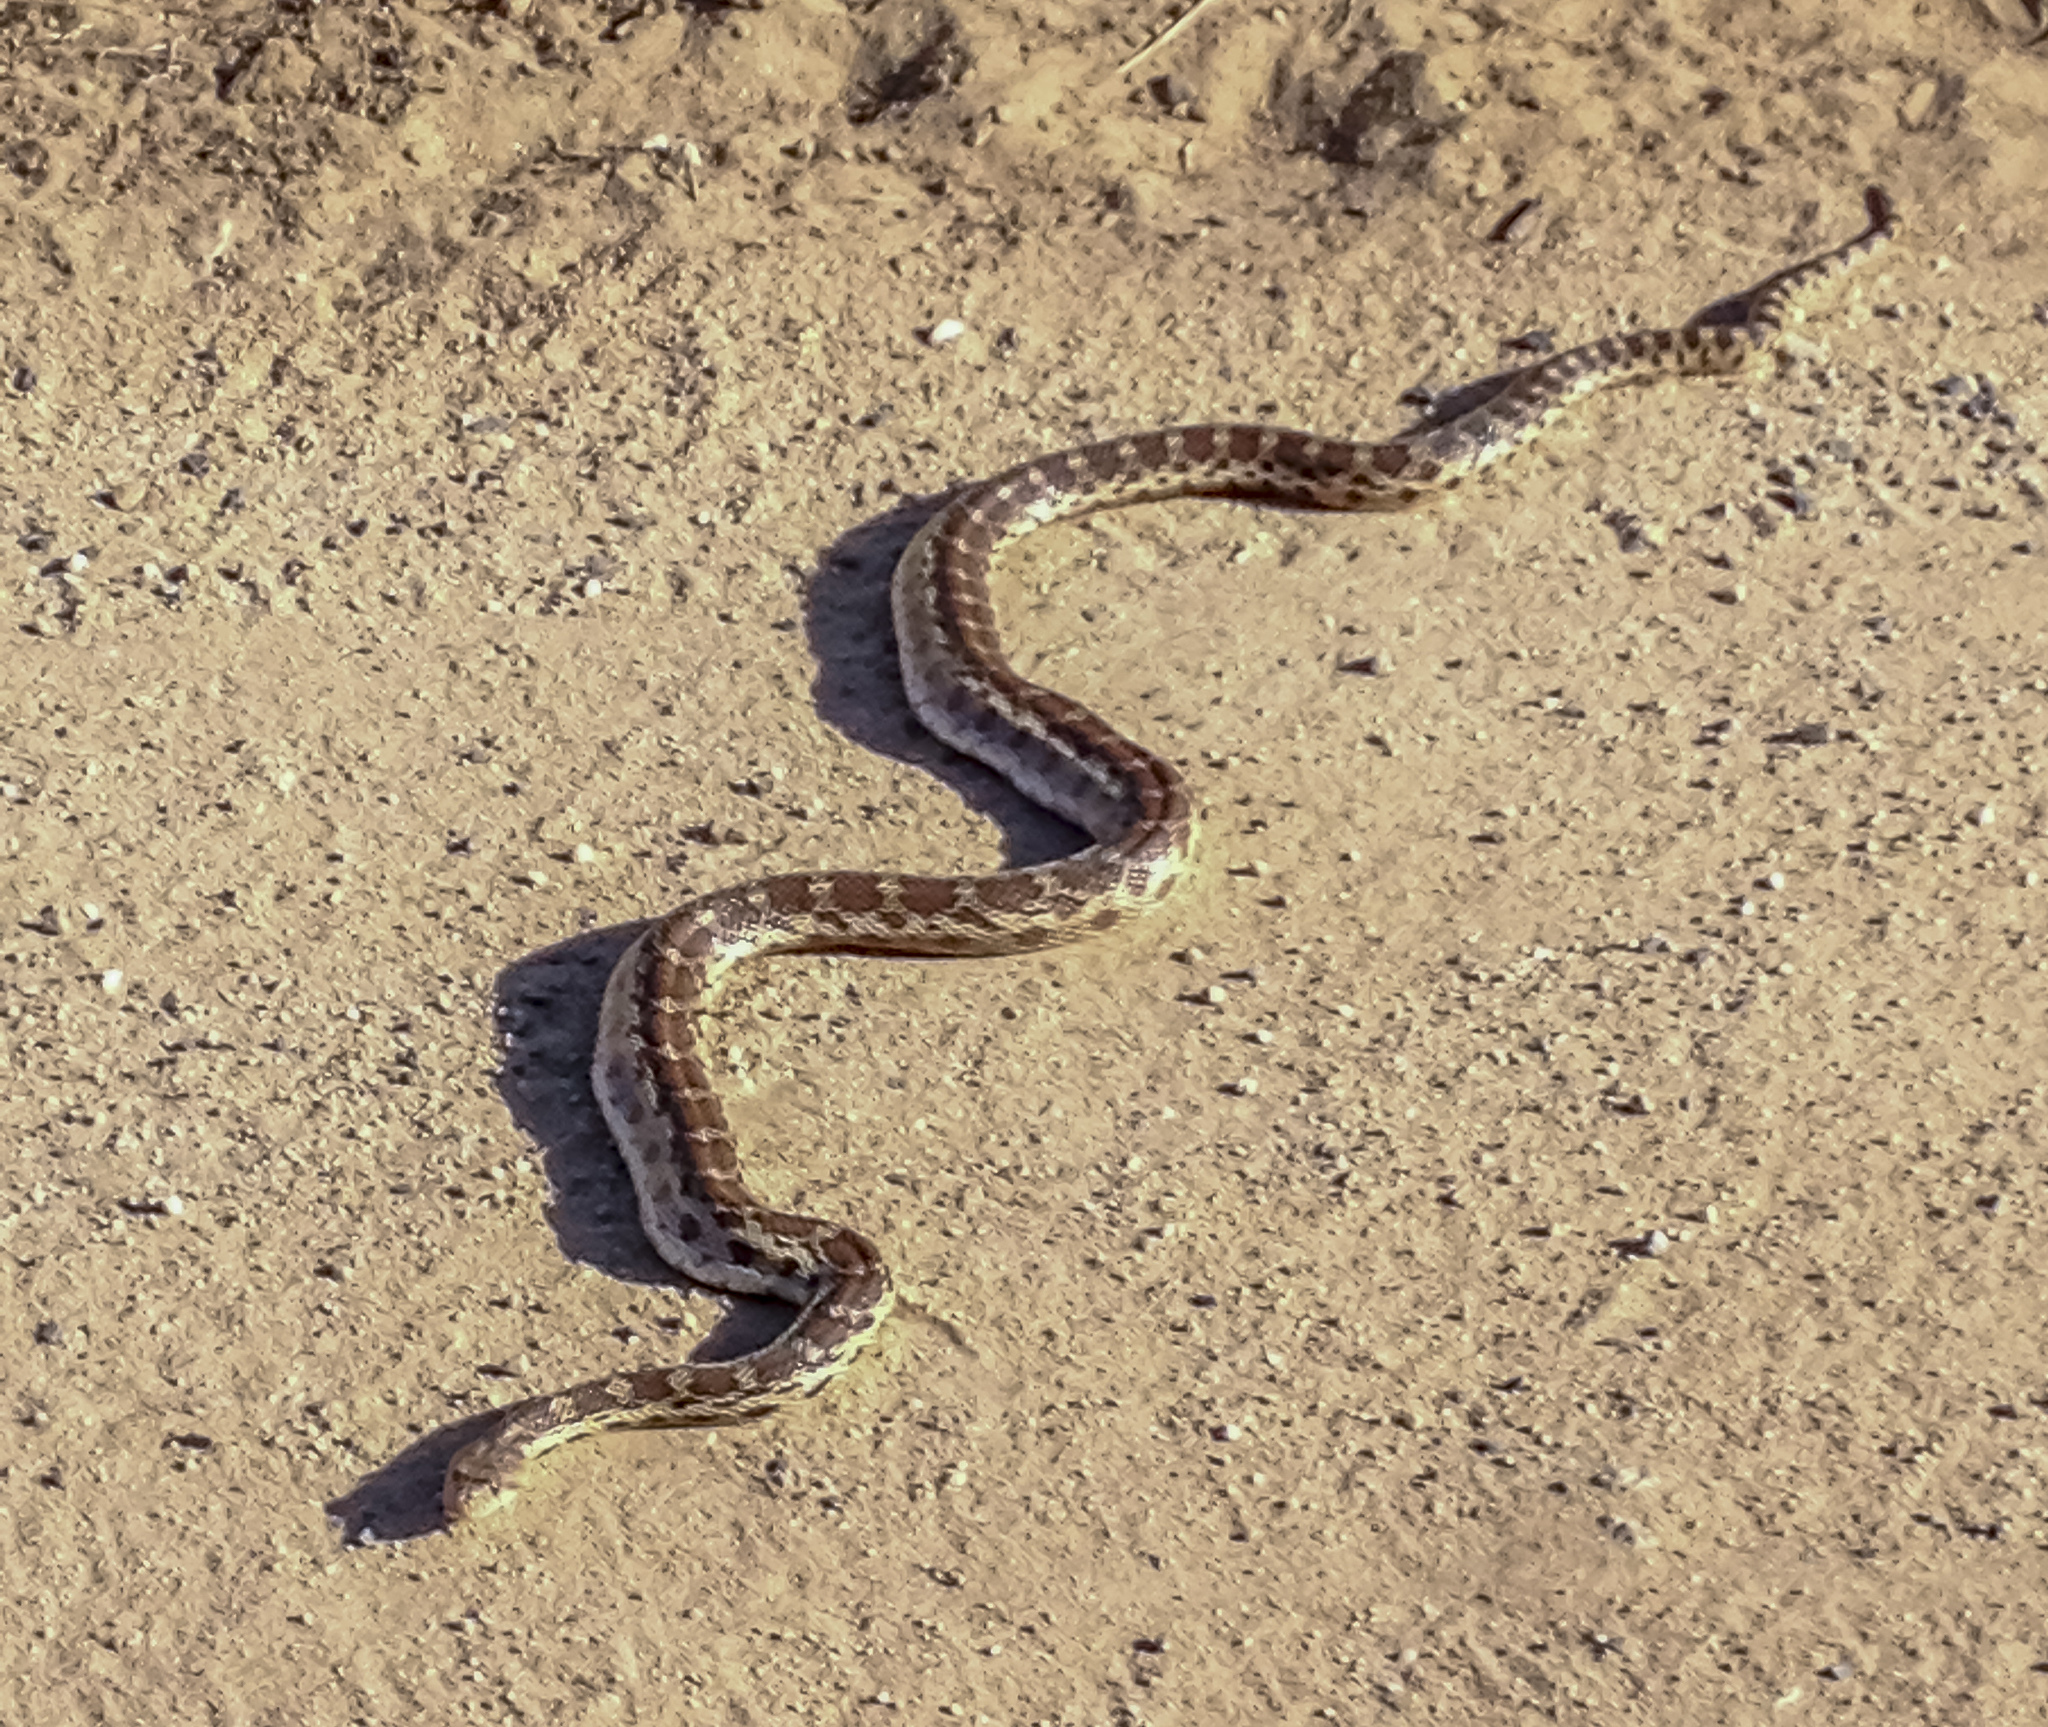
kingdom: Animalia
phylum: Chordata
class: Squamata
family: Colubridae
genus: Pituophis
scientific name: Pituophis catenifer
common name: Gopher snake
